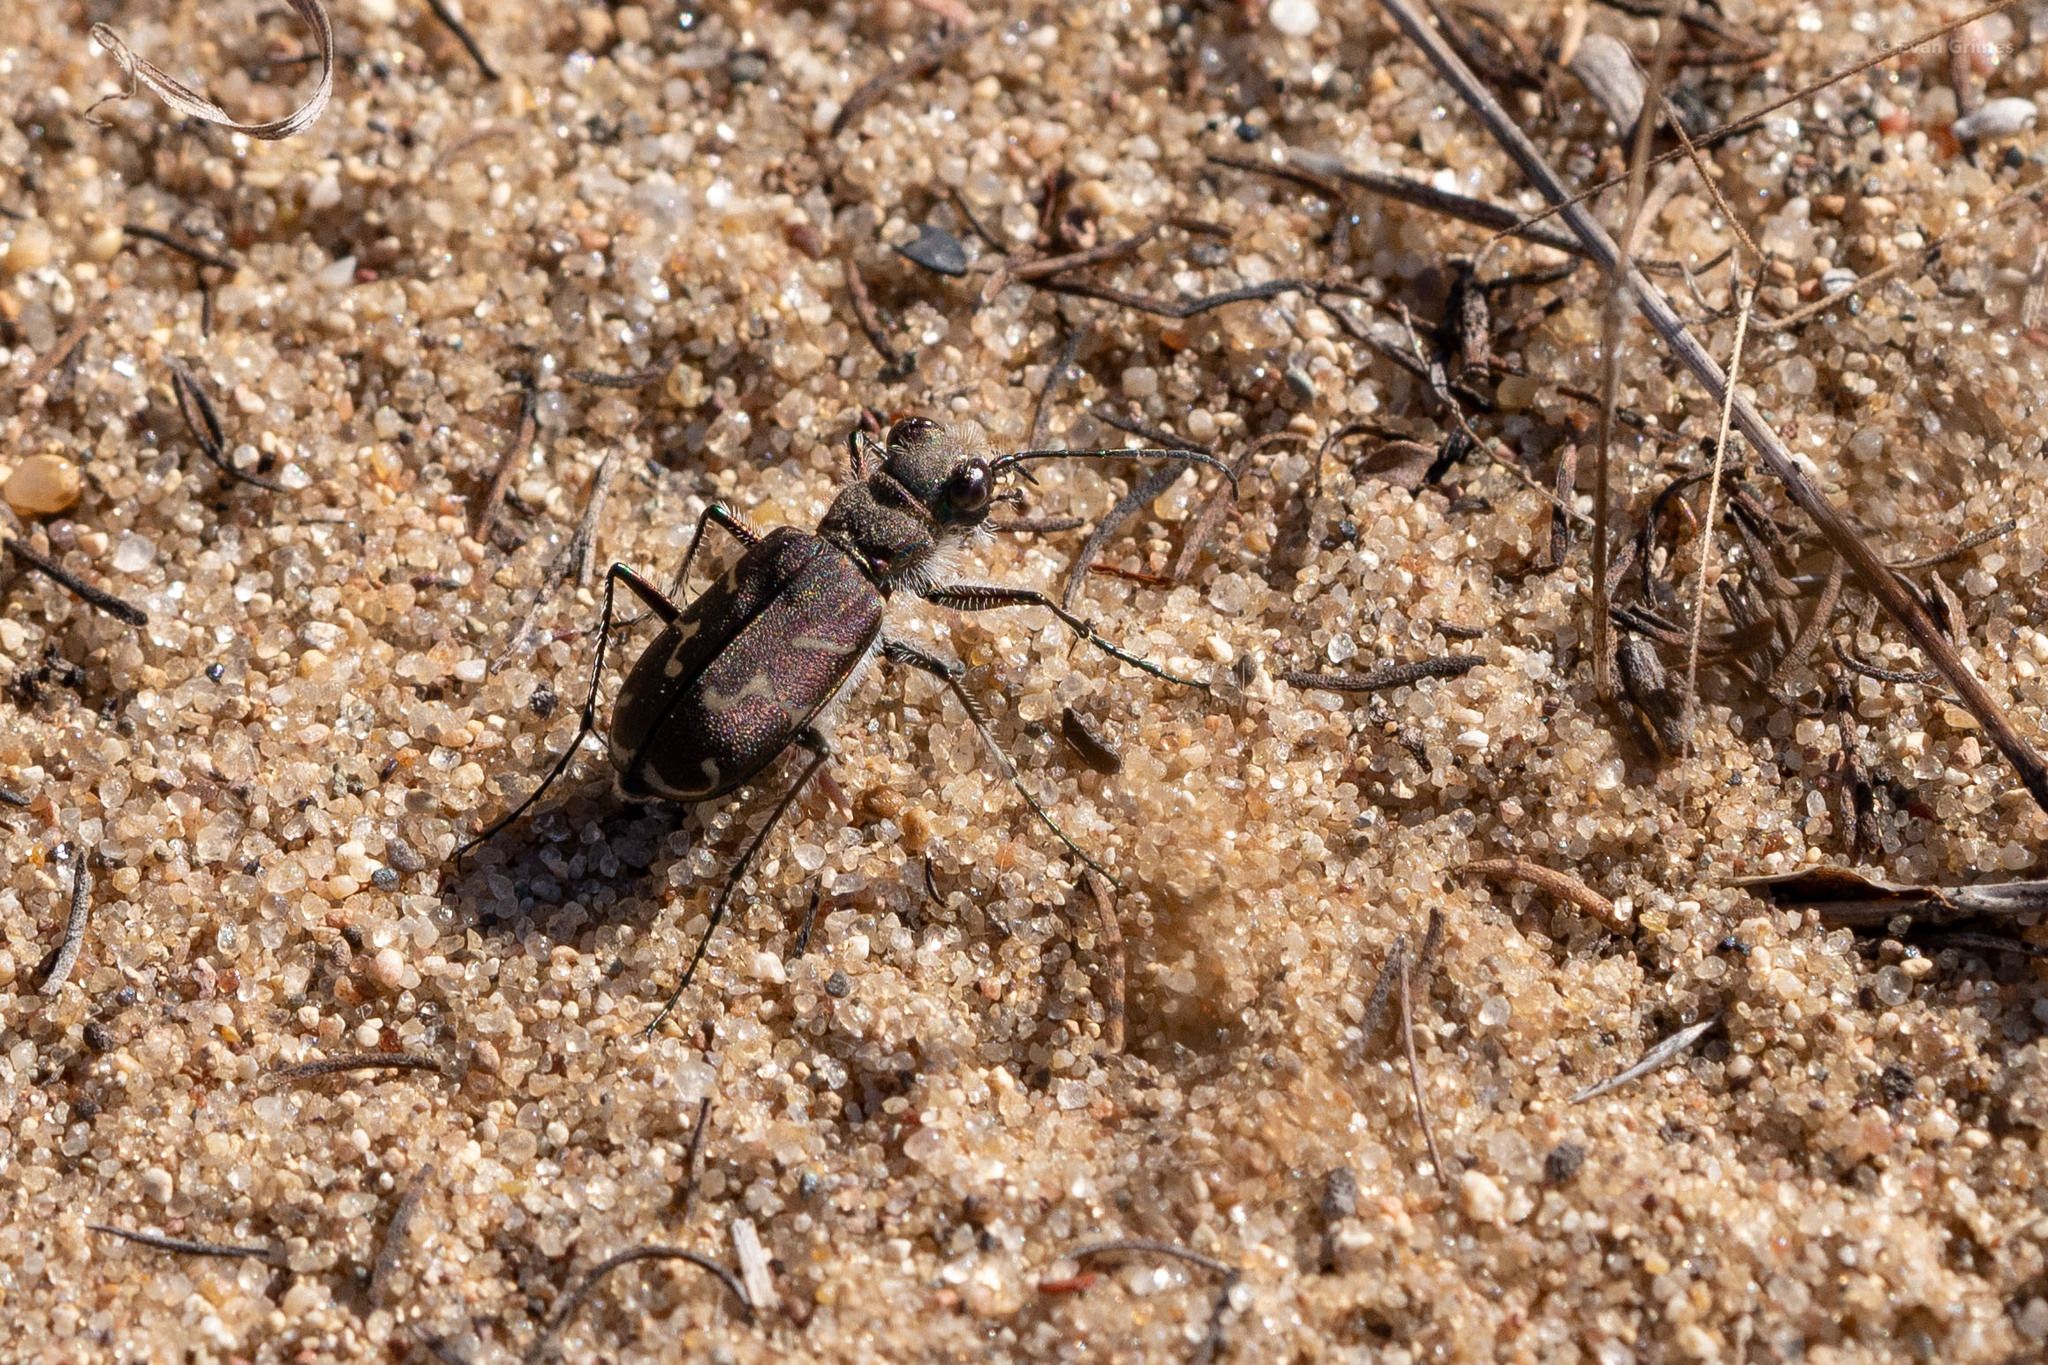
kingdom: Animalia
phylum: Arthropoda
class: Insecta
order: Coleoptera
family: Carabidae
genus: Cicindela
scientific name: Cicindela tranquebarica
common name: Oblique-lined tiger beetle
